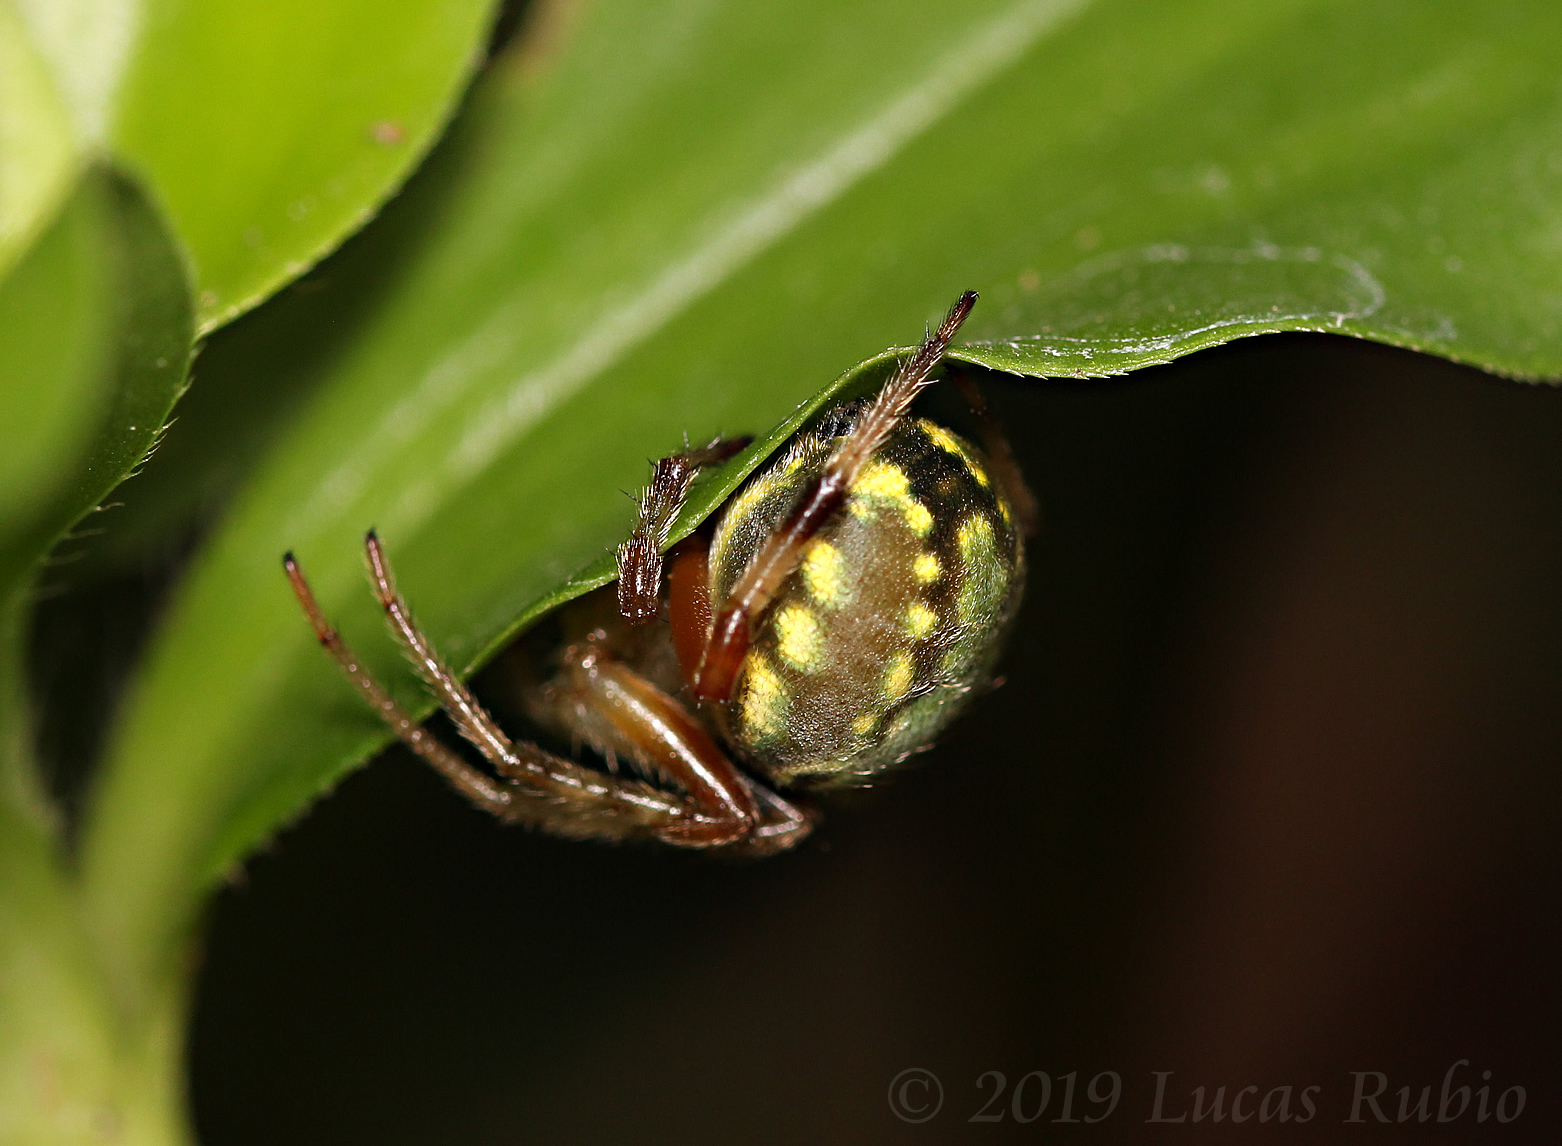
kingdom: Animalia
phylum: Arthropoda
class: Arachnida
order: Araneae
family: Araneidae
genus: Araneus
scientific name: Araneus workmani
